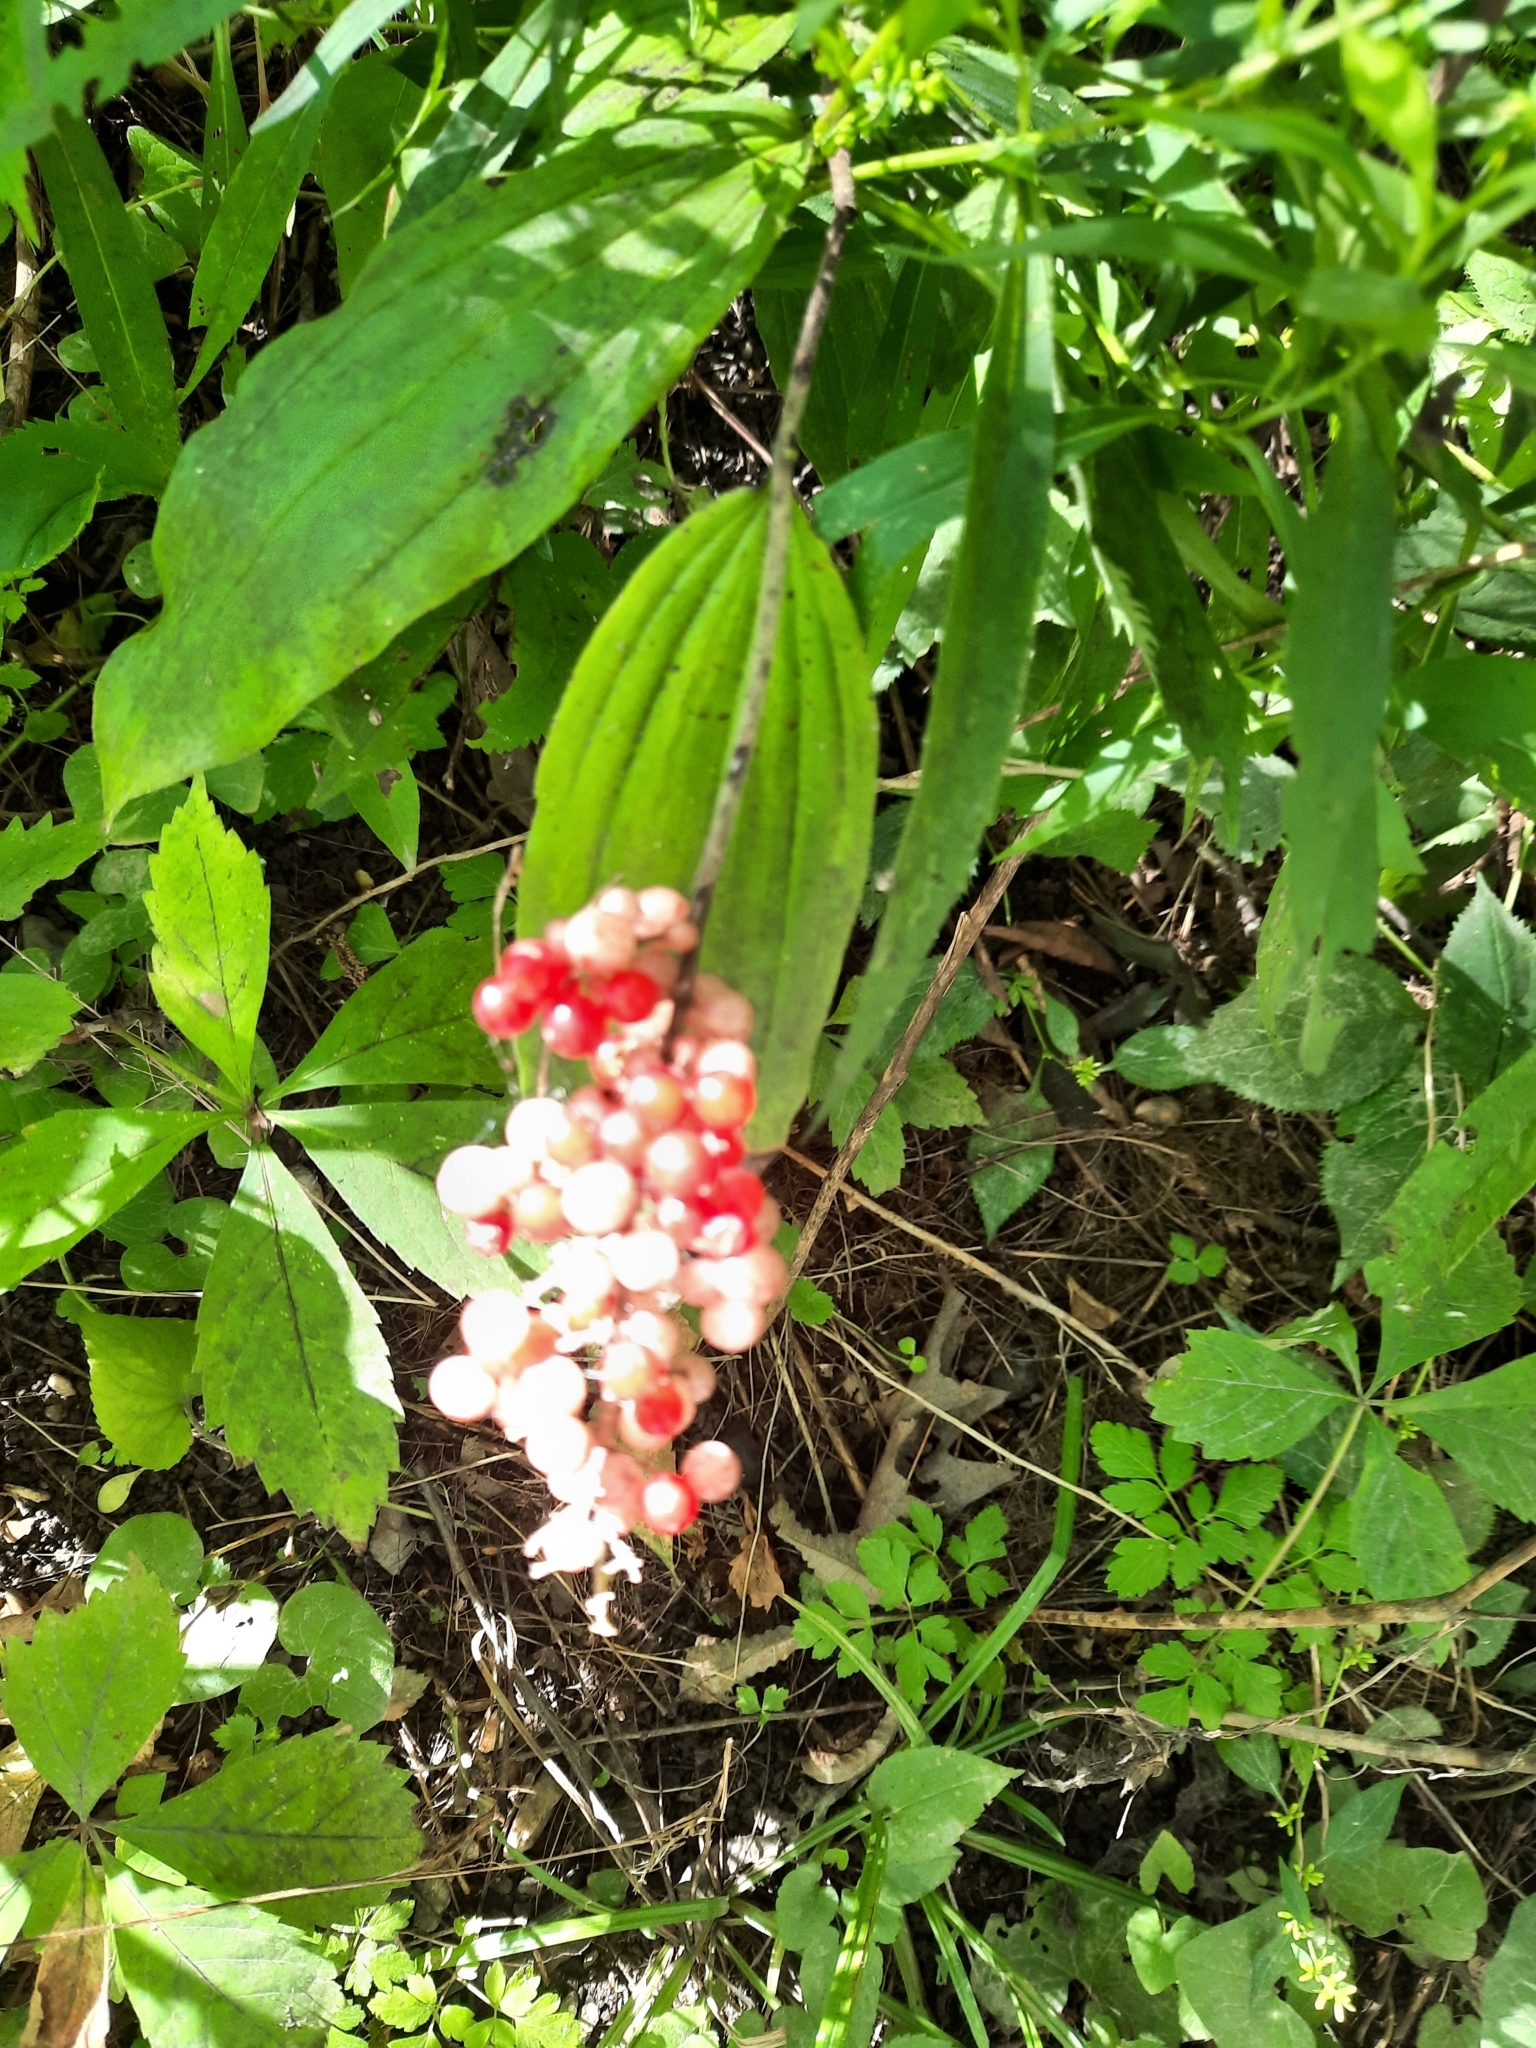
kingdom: Plantae
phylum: Tracheophyta
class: Liliopsida
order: Asparagales
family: Asparagaceae
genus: Maianthemum
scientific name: Maianthemum racemosum
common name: False spikenard
